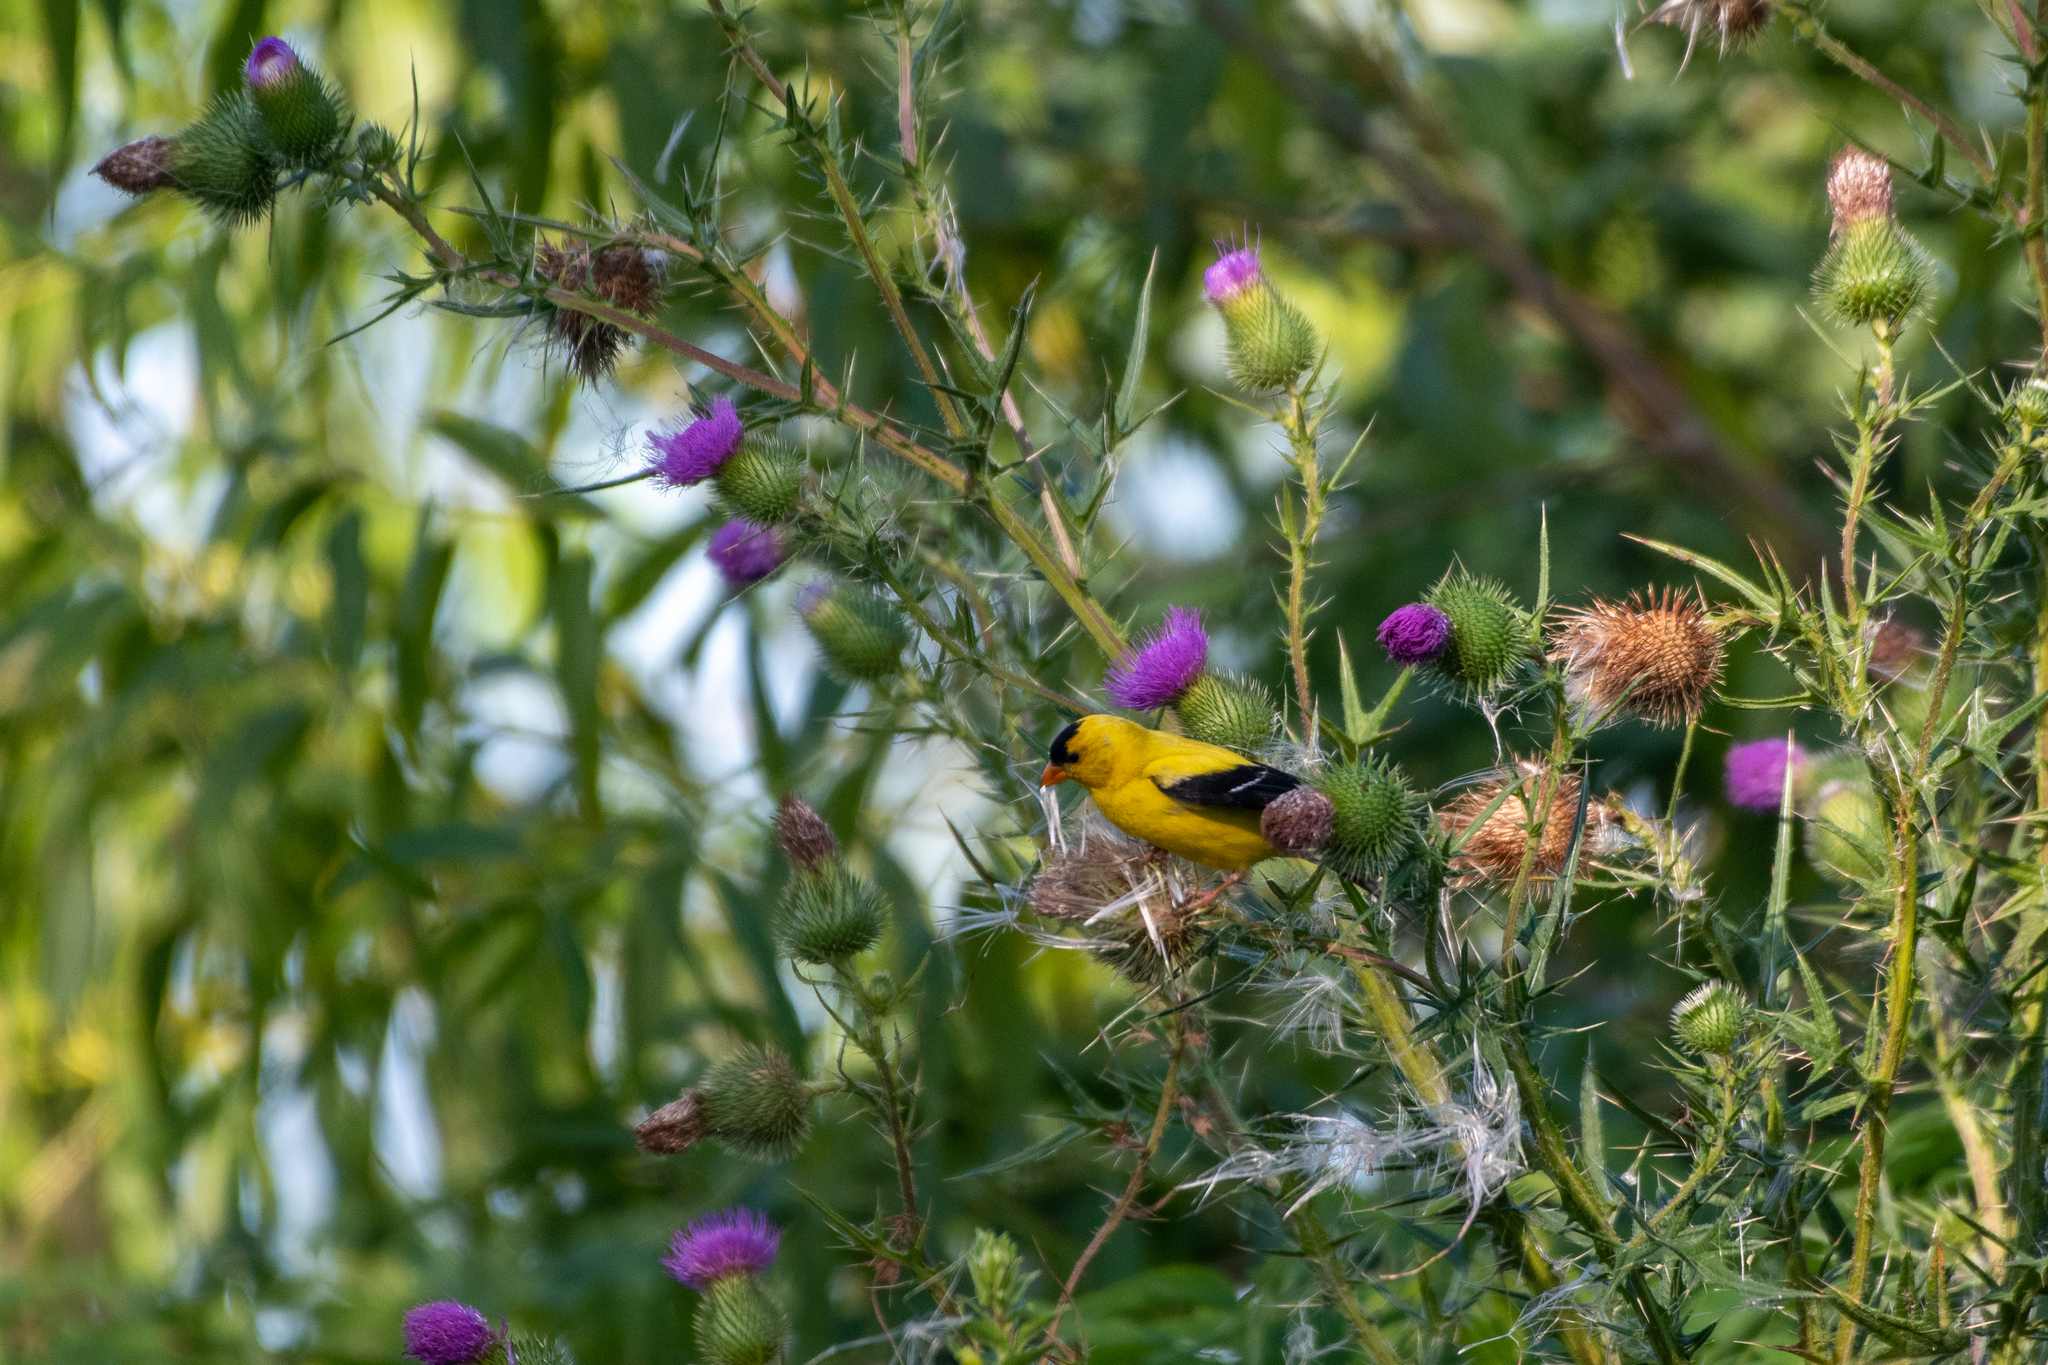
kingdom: Animalia
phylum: Chordata
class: Aves
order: Passeriformes
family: Fringillidae
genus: Spinus
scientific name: Spinus tristis
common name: American goldfinch
